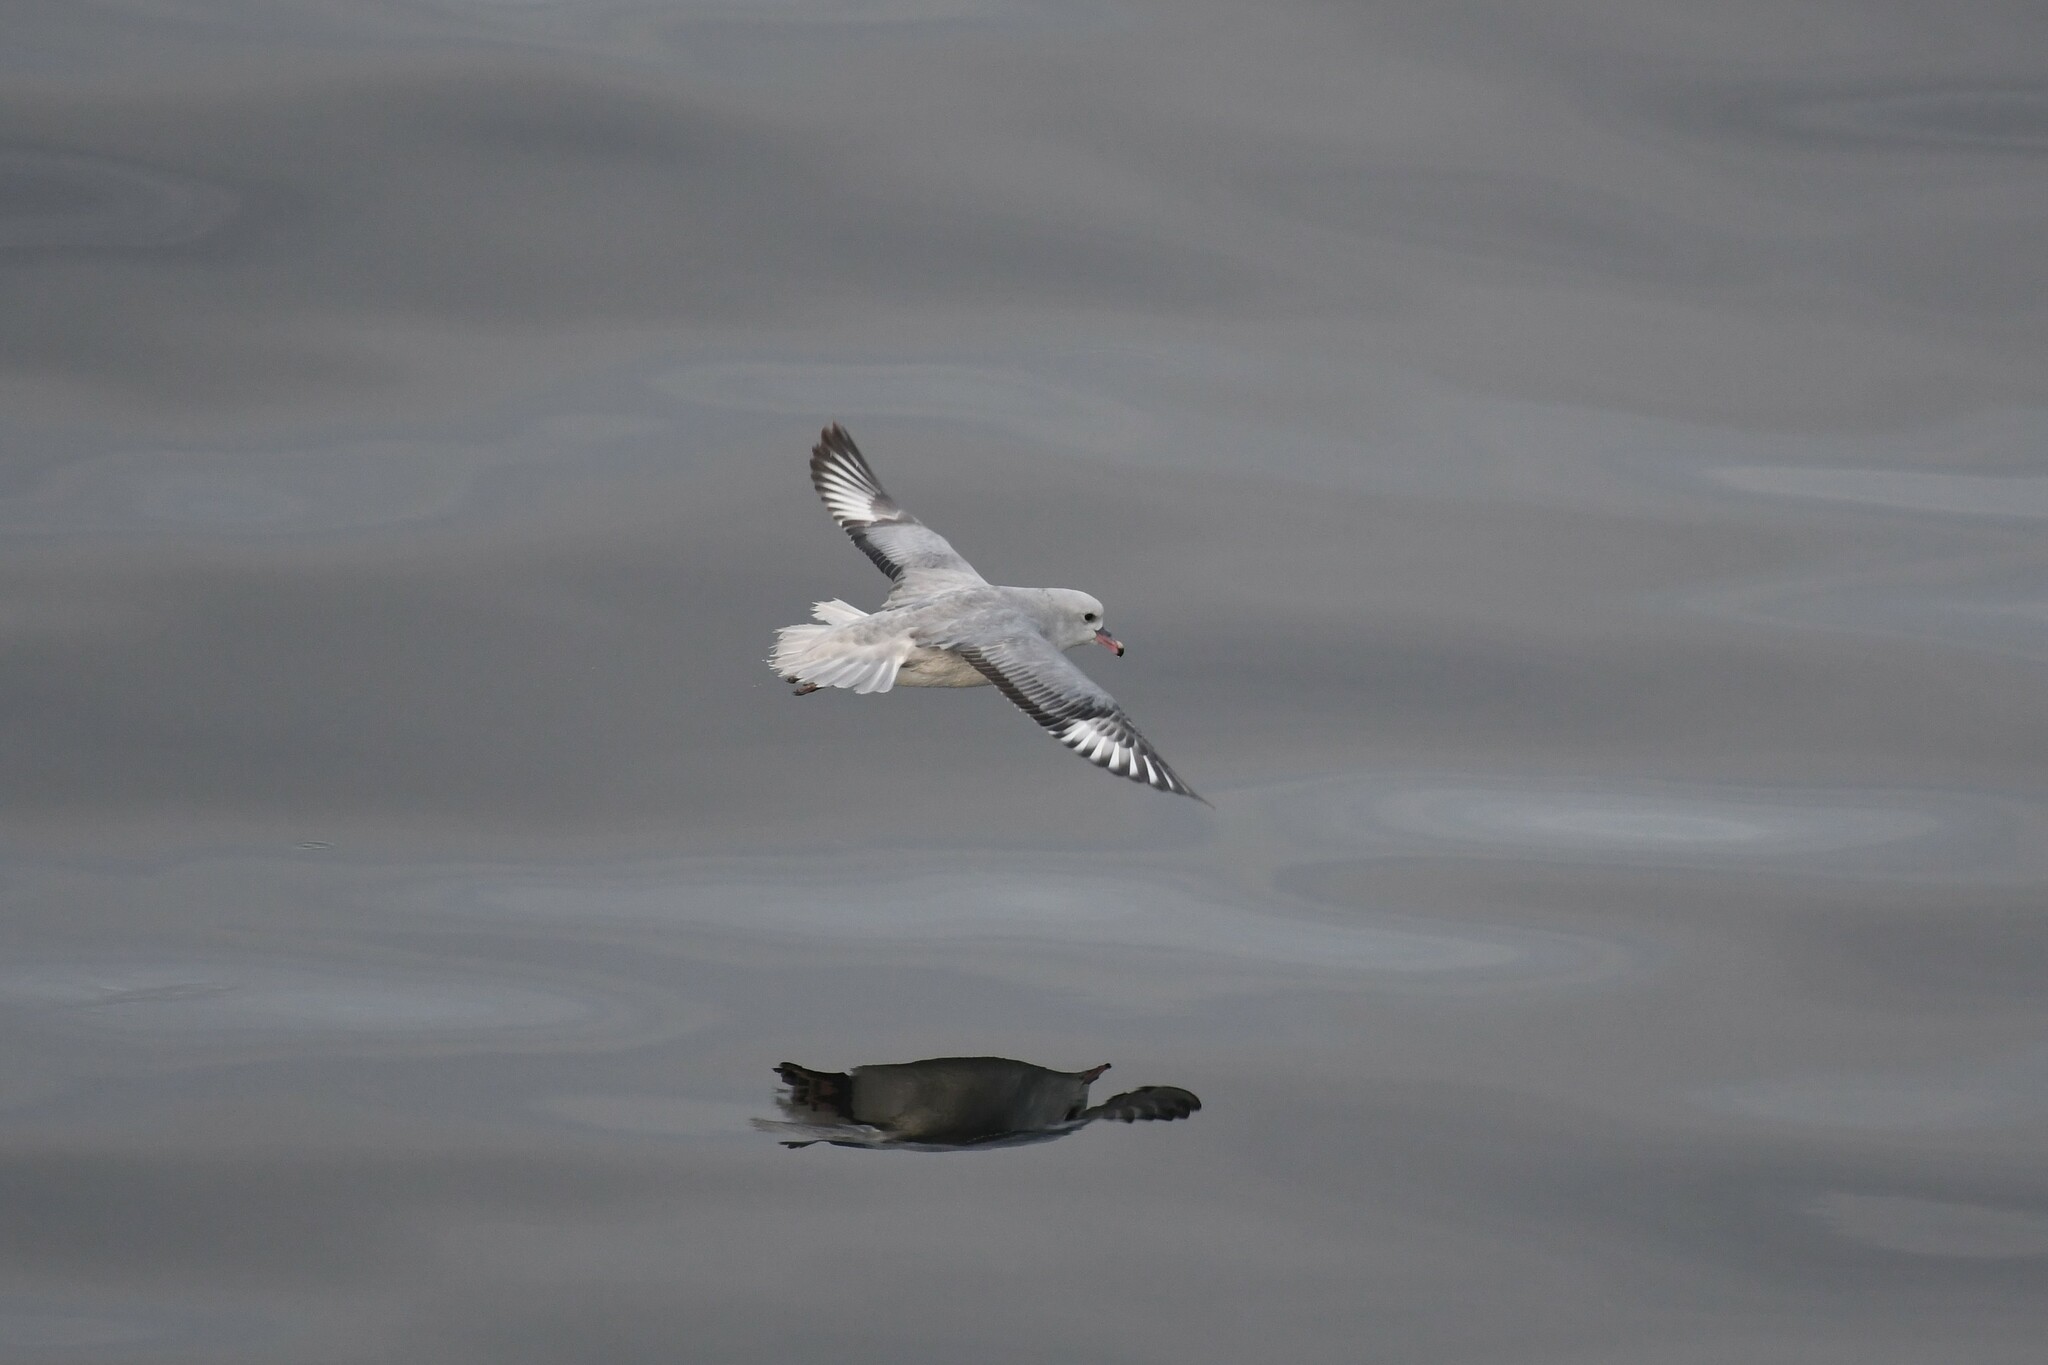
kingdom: Animalia
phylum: Chordata
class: Aves
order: Procellariiformes
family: Procellariidae
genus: Fulmarus
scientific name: Fulmarus glacialoides
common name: Southern fulmar
